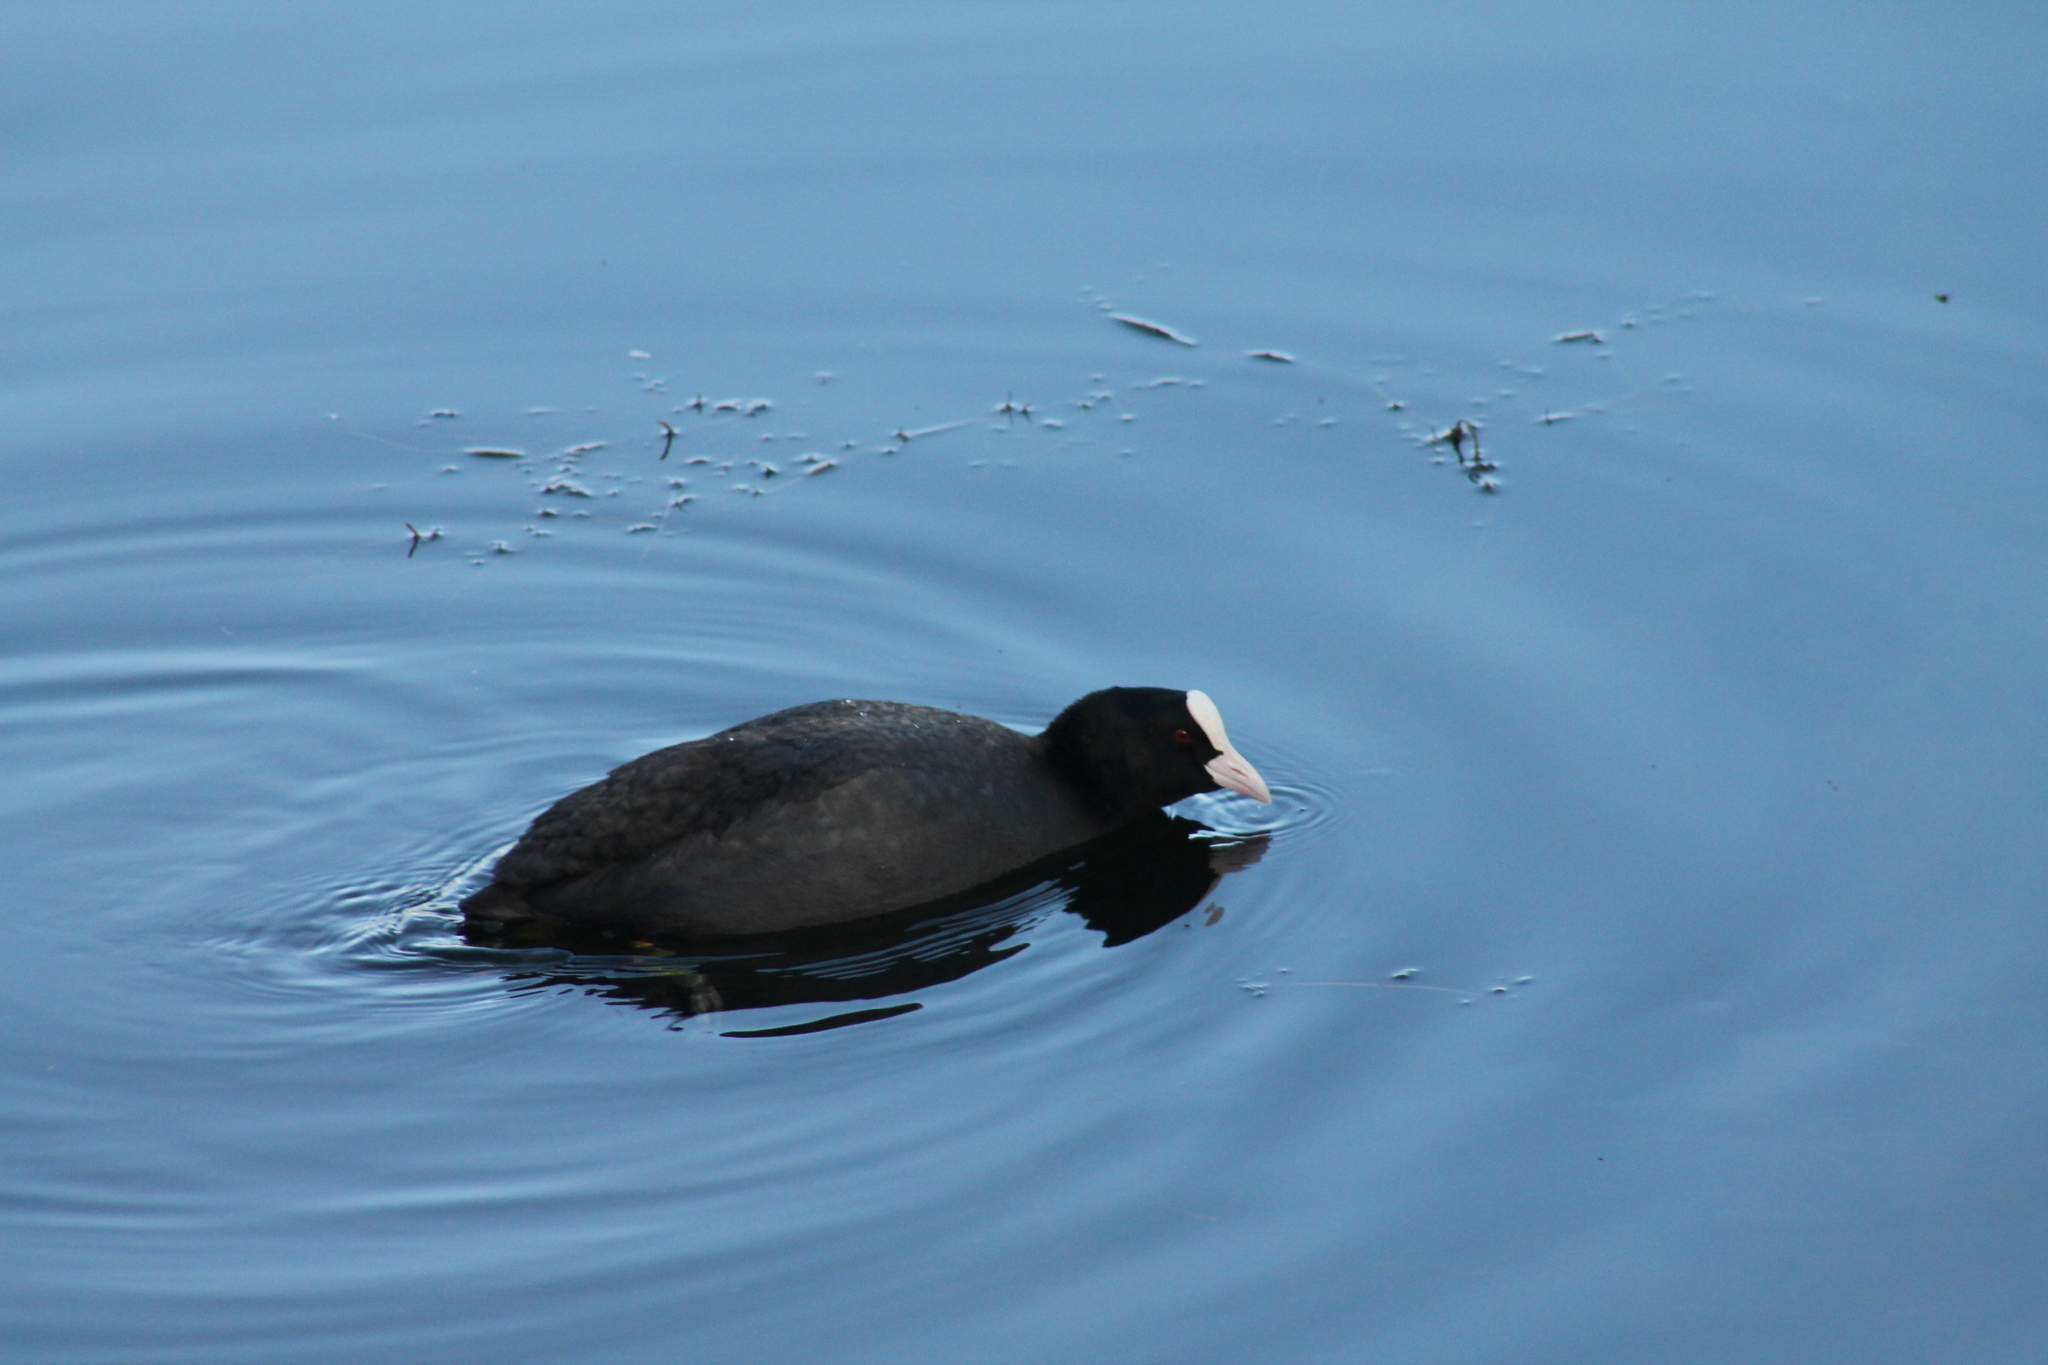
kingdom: Animalia
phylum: Chordata
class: Aves
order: Gruiformes
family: Rallidae
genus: Fulica
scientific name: Fulica atra
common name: Eurasian coot
